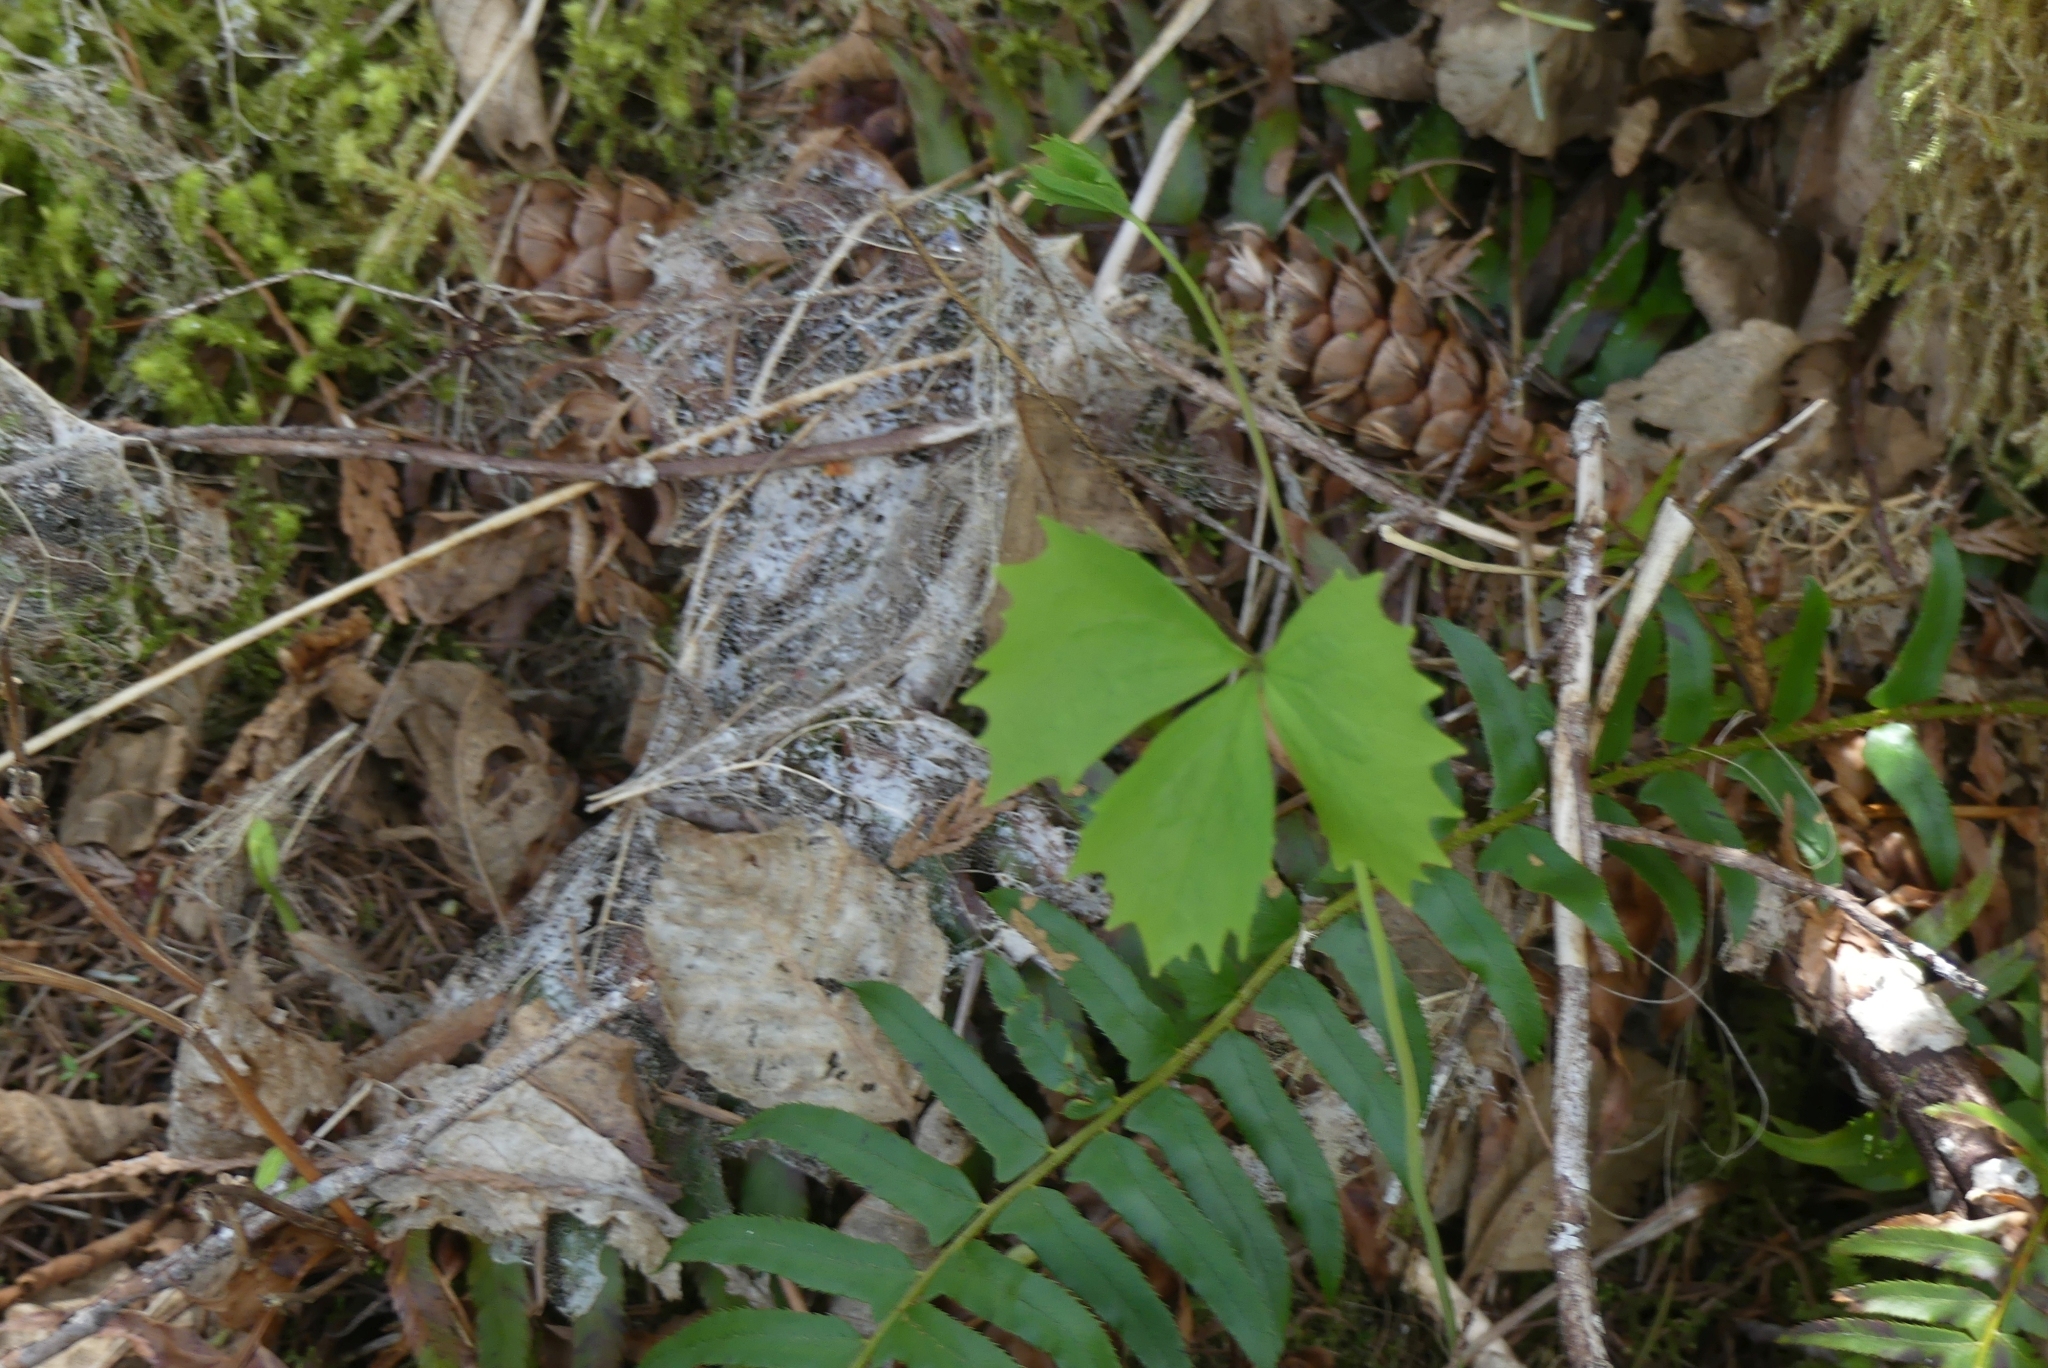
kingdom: Plantae
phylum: Tracheophyta
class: Magnoliopsida
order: Ranunculales
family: Berberidaceae
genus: Achlys
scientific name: Achlys triphylla
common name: Vanilla-leaf
